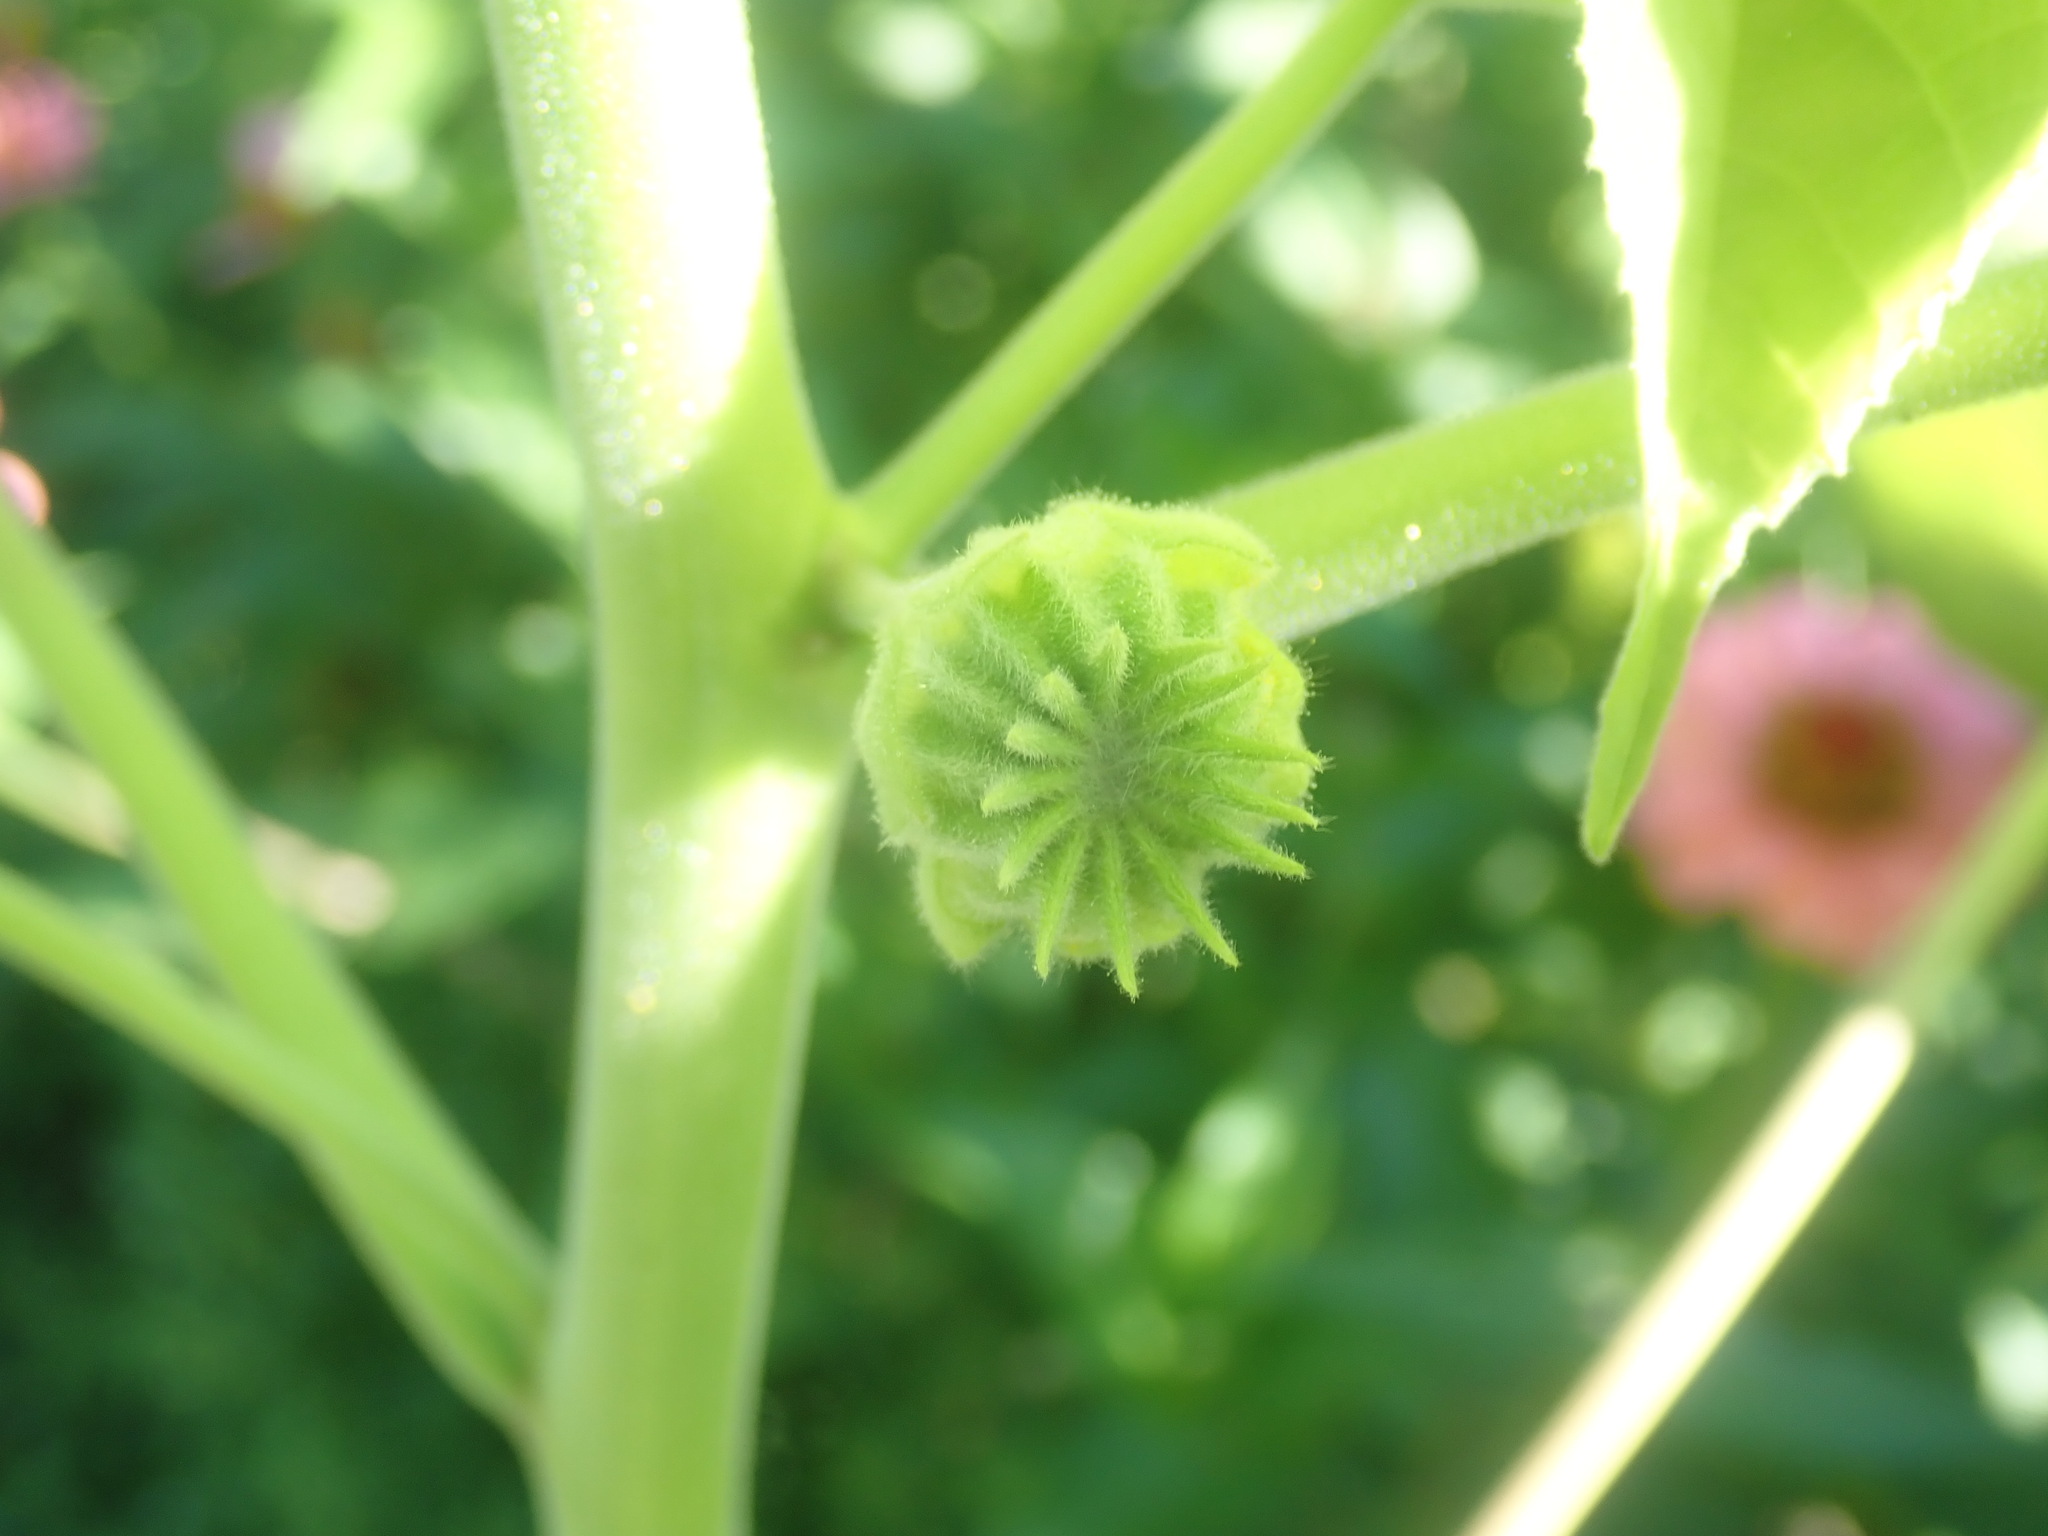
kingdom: Plantae
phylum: Tracheophyta
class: Magnoliopsida
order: Malvales
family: Malvaceae
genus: Abutilon
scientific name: Abutilon theophrasti
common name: Velvetleaf
